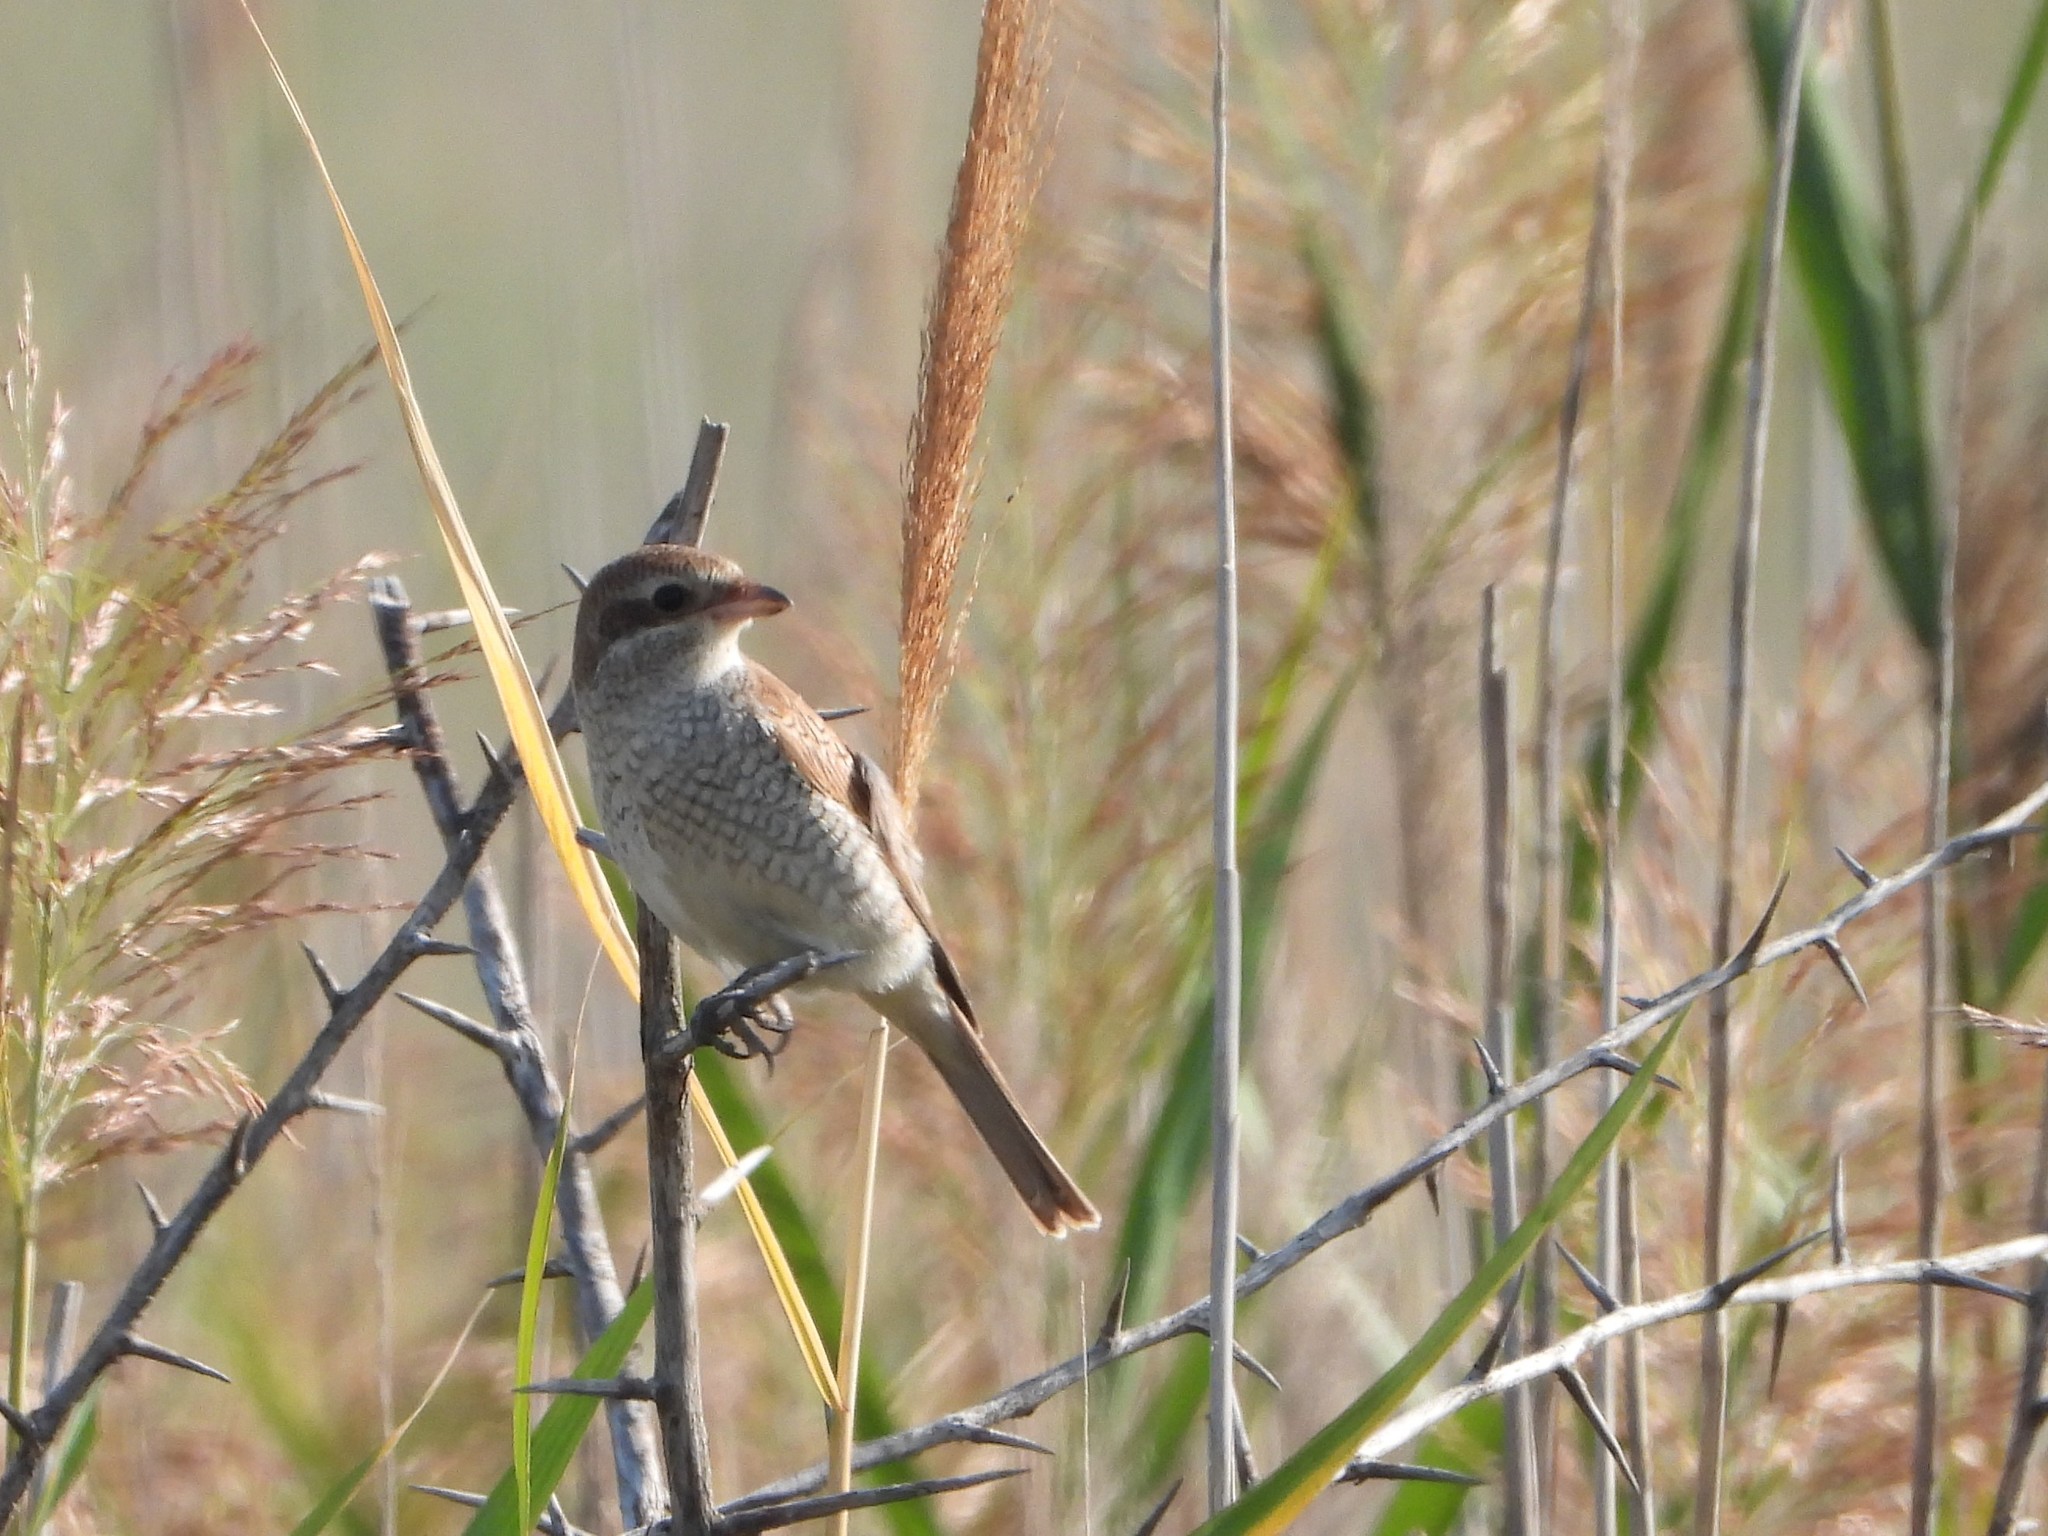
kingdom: Animalia
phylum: Chordata
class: Aves
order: Passeriformes
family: Laniidae
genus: Lanius
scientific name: Lanius collurio
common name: Red-backed shrike
